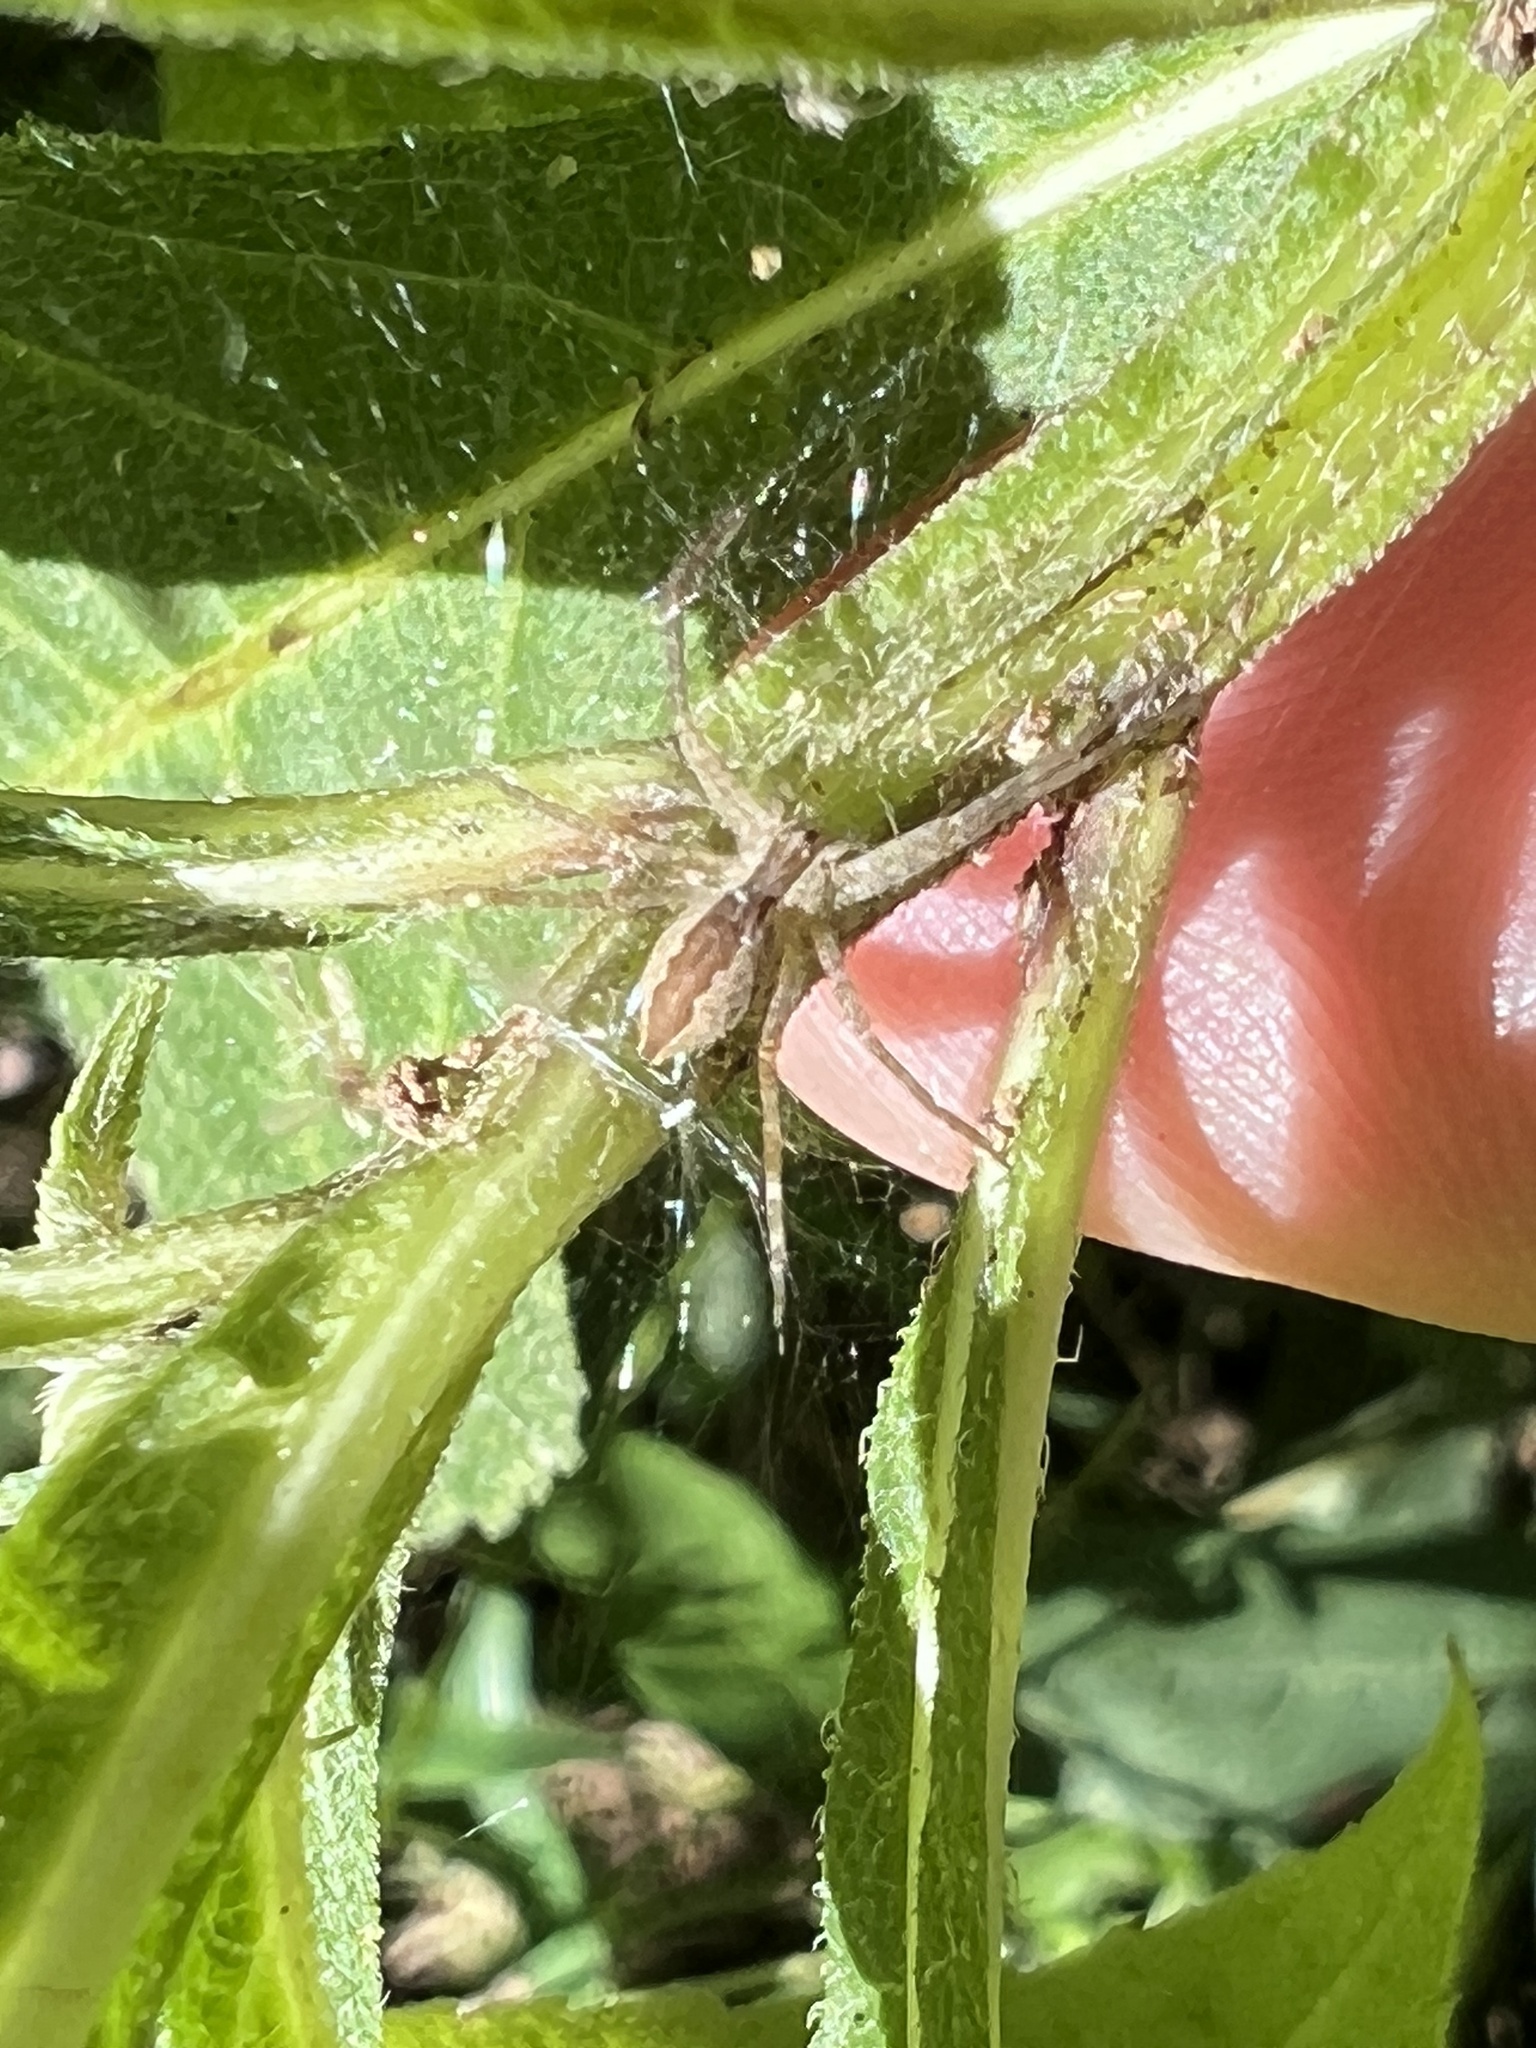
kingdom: Animalia
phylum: Arthropoda
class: Arachnida
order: Araneae
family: Pisauridae
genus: Pisaurina
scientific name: Pisaurina mira
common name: American nursery web spider
